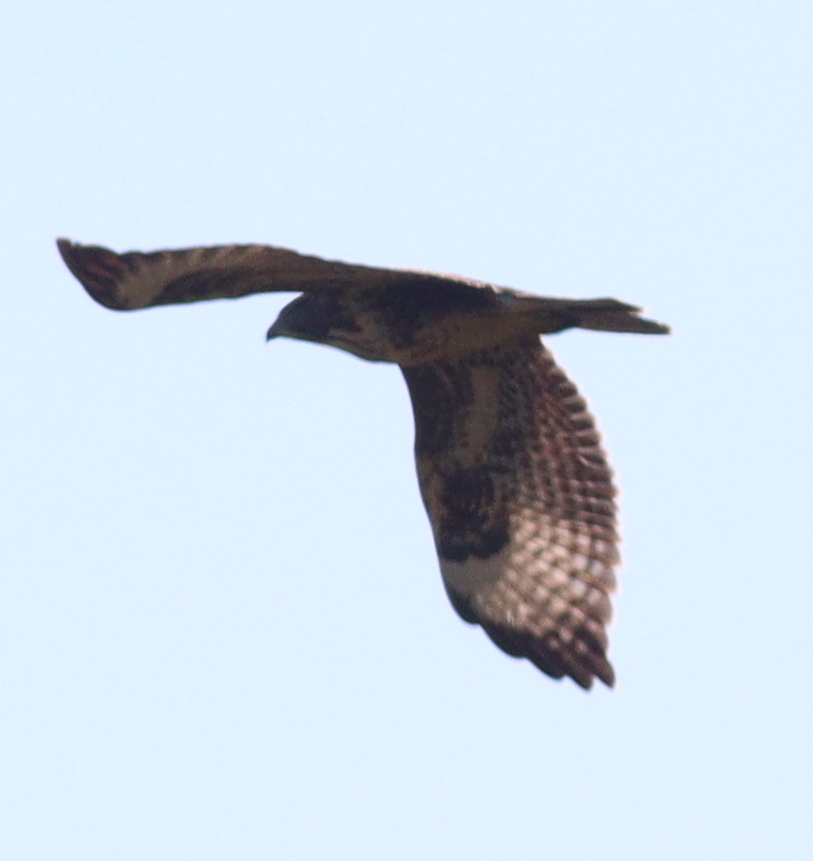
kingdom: Animalia
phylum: Chordata
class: Aves
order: Accipitriformes
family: Accipitridae
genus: Buteo
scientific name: Buteo buteo
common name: Common buzzard
